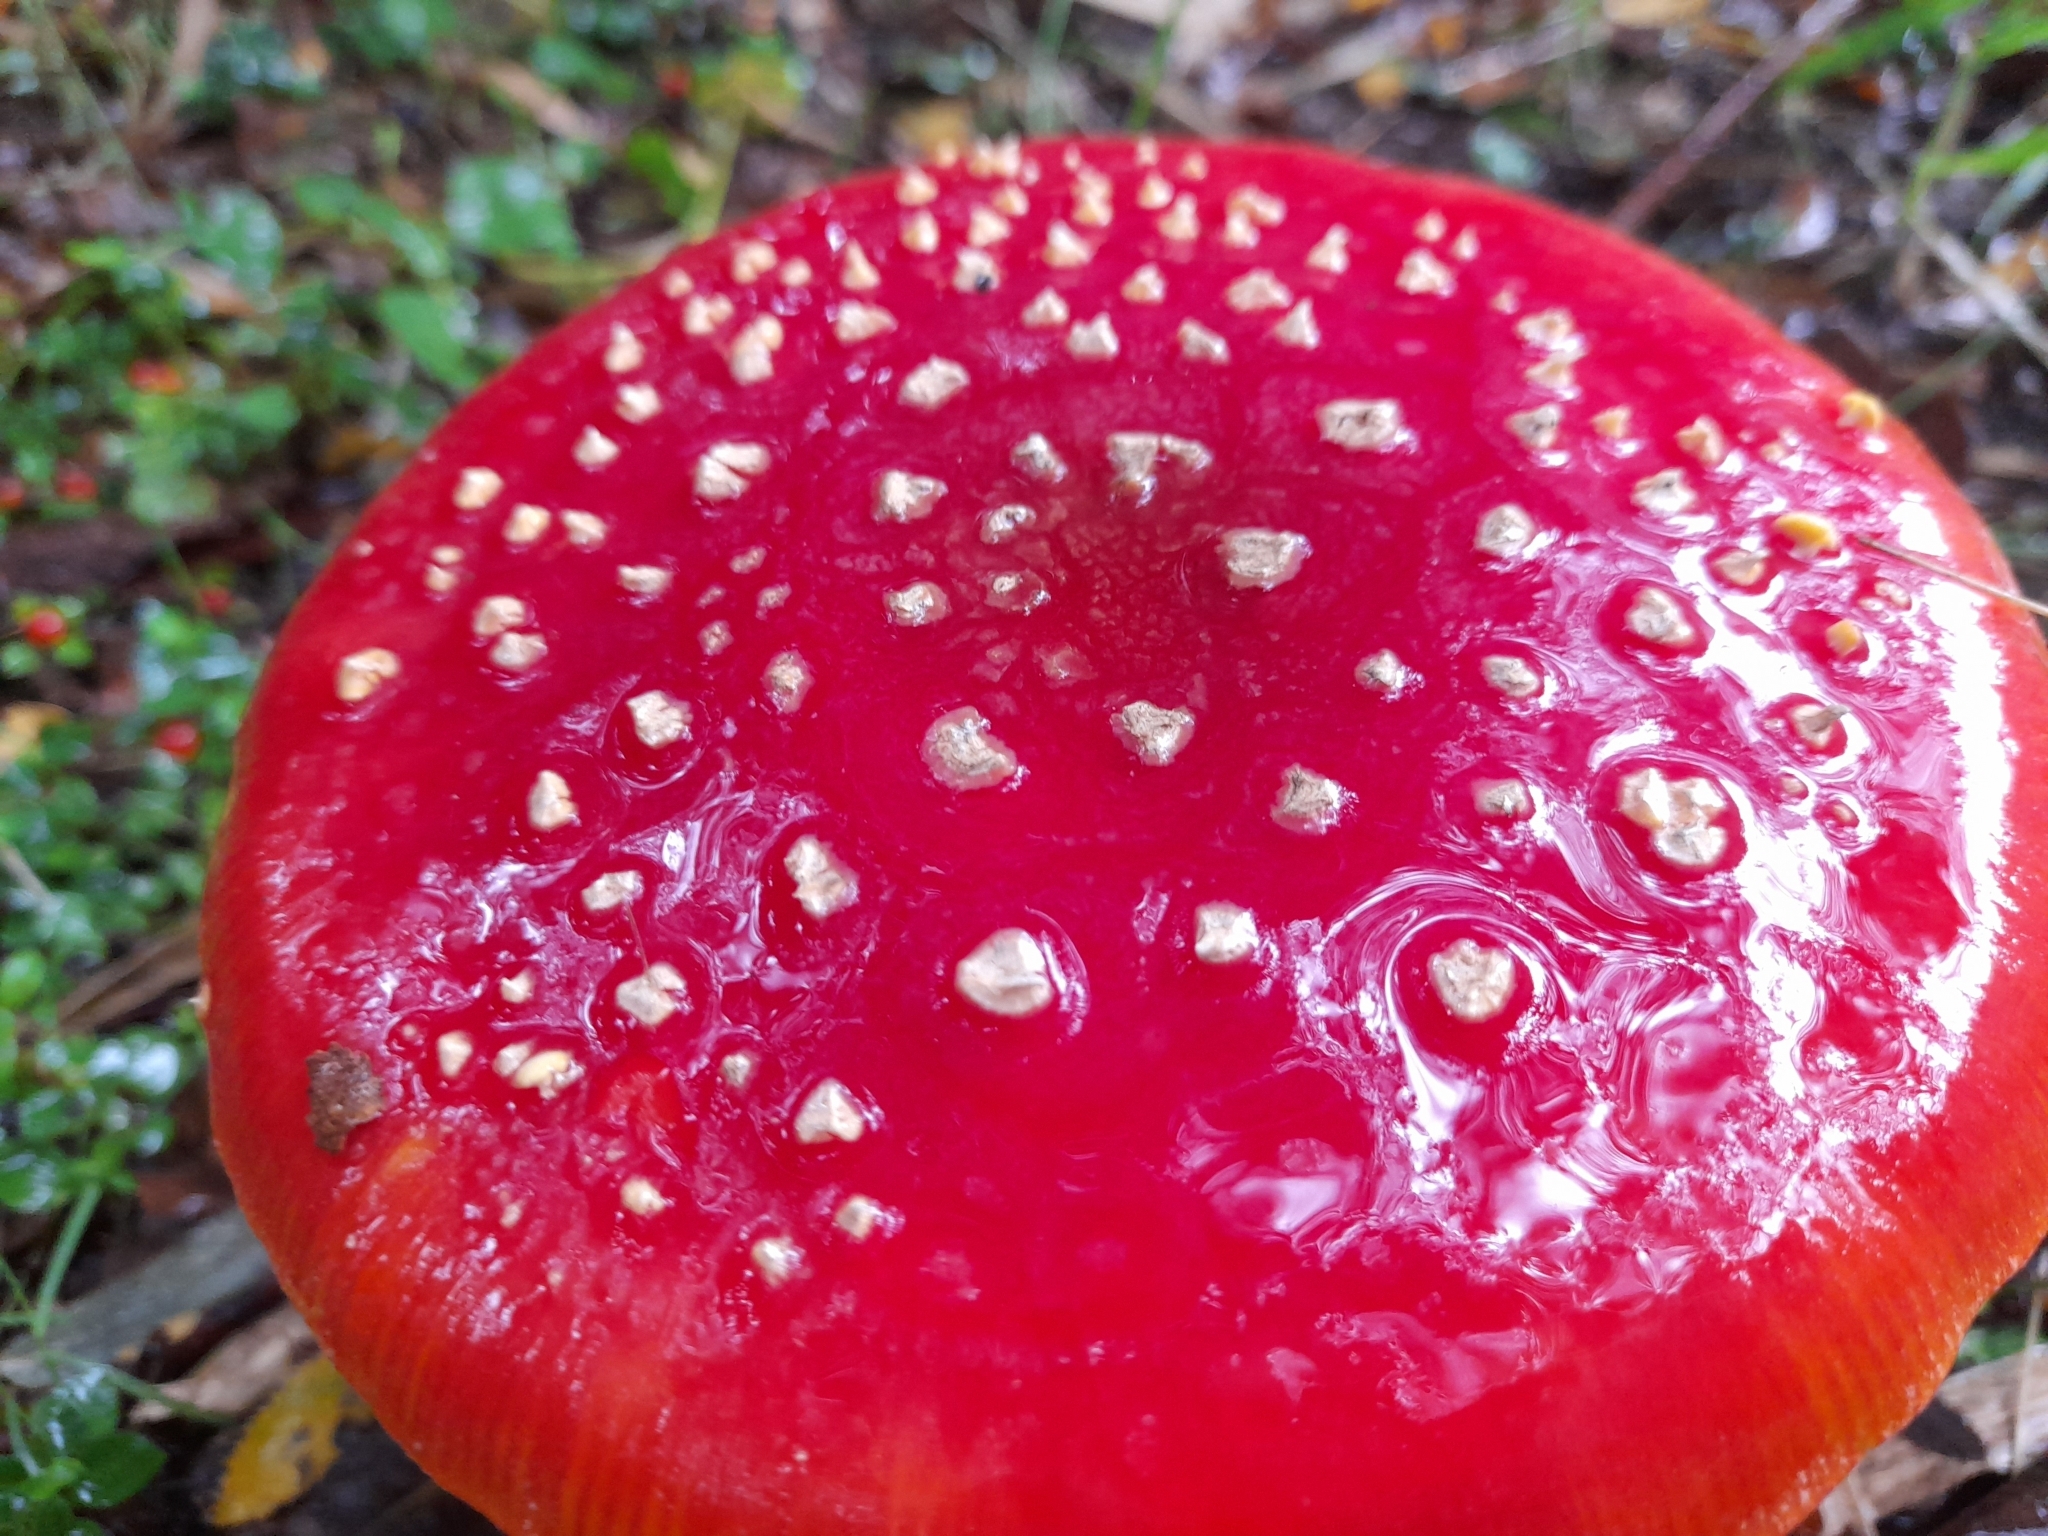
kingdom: Fungi
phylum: Basidiomycota
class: Agaricomycetes
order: Agaricales
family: Amanitaceae
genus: Amanita
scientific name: Amanita muscaria
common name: Fly agaric
